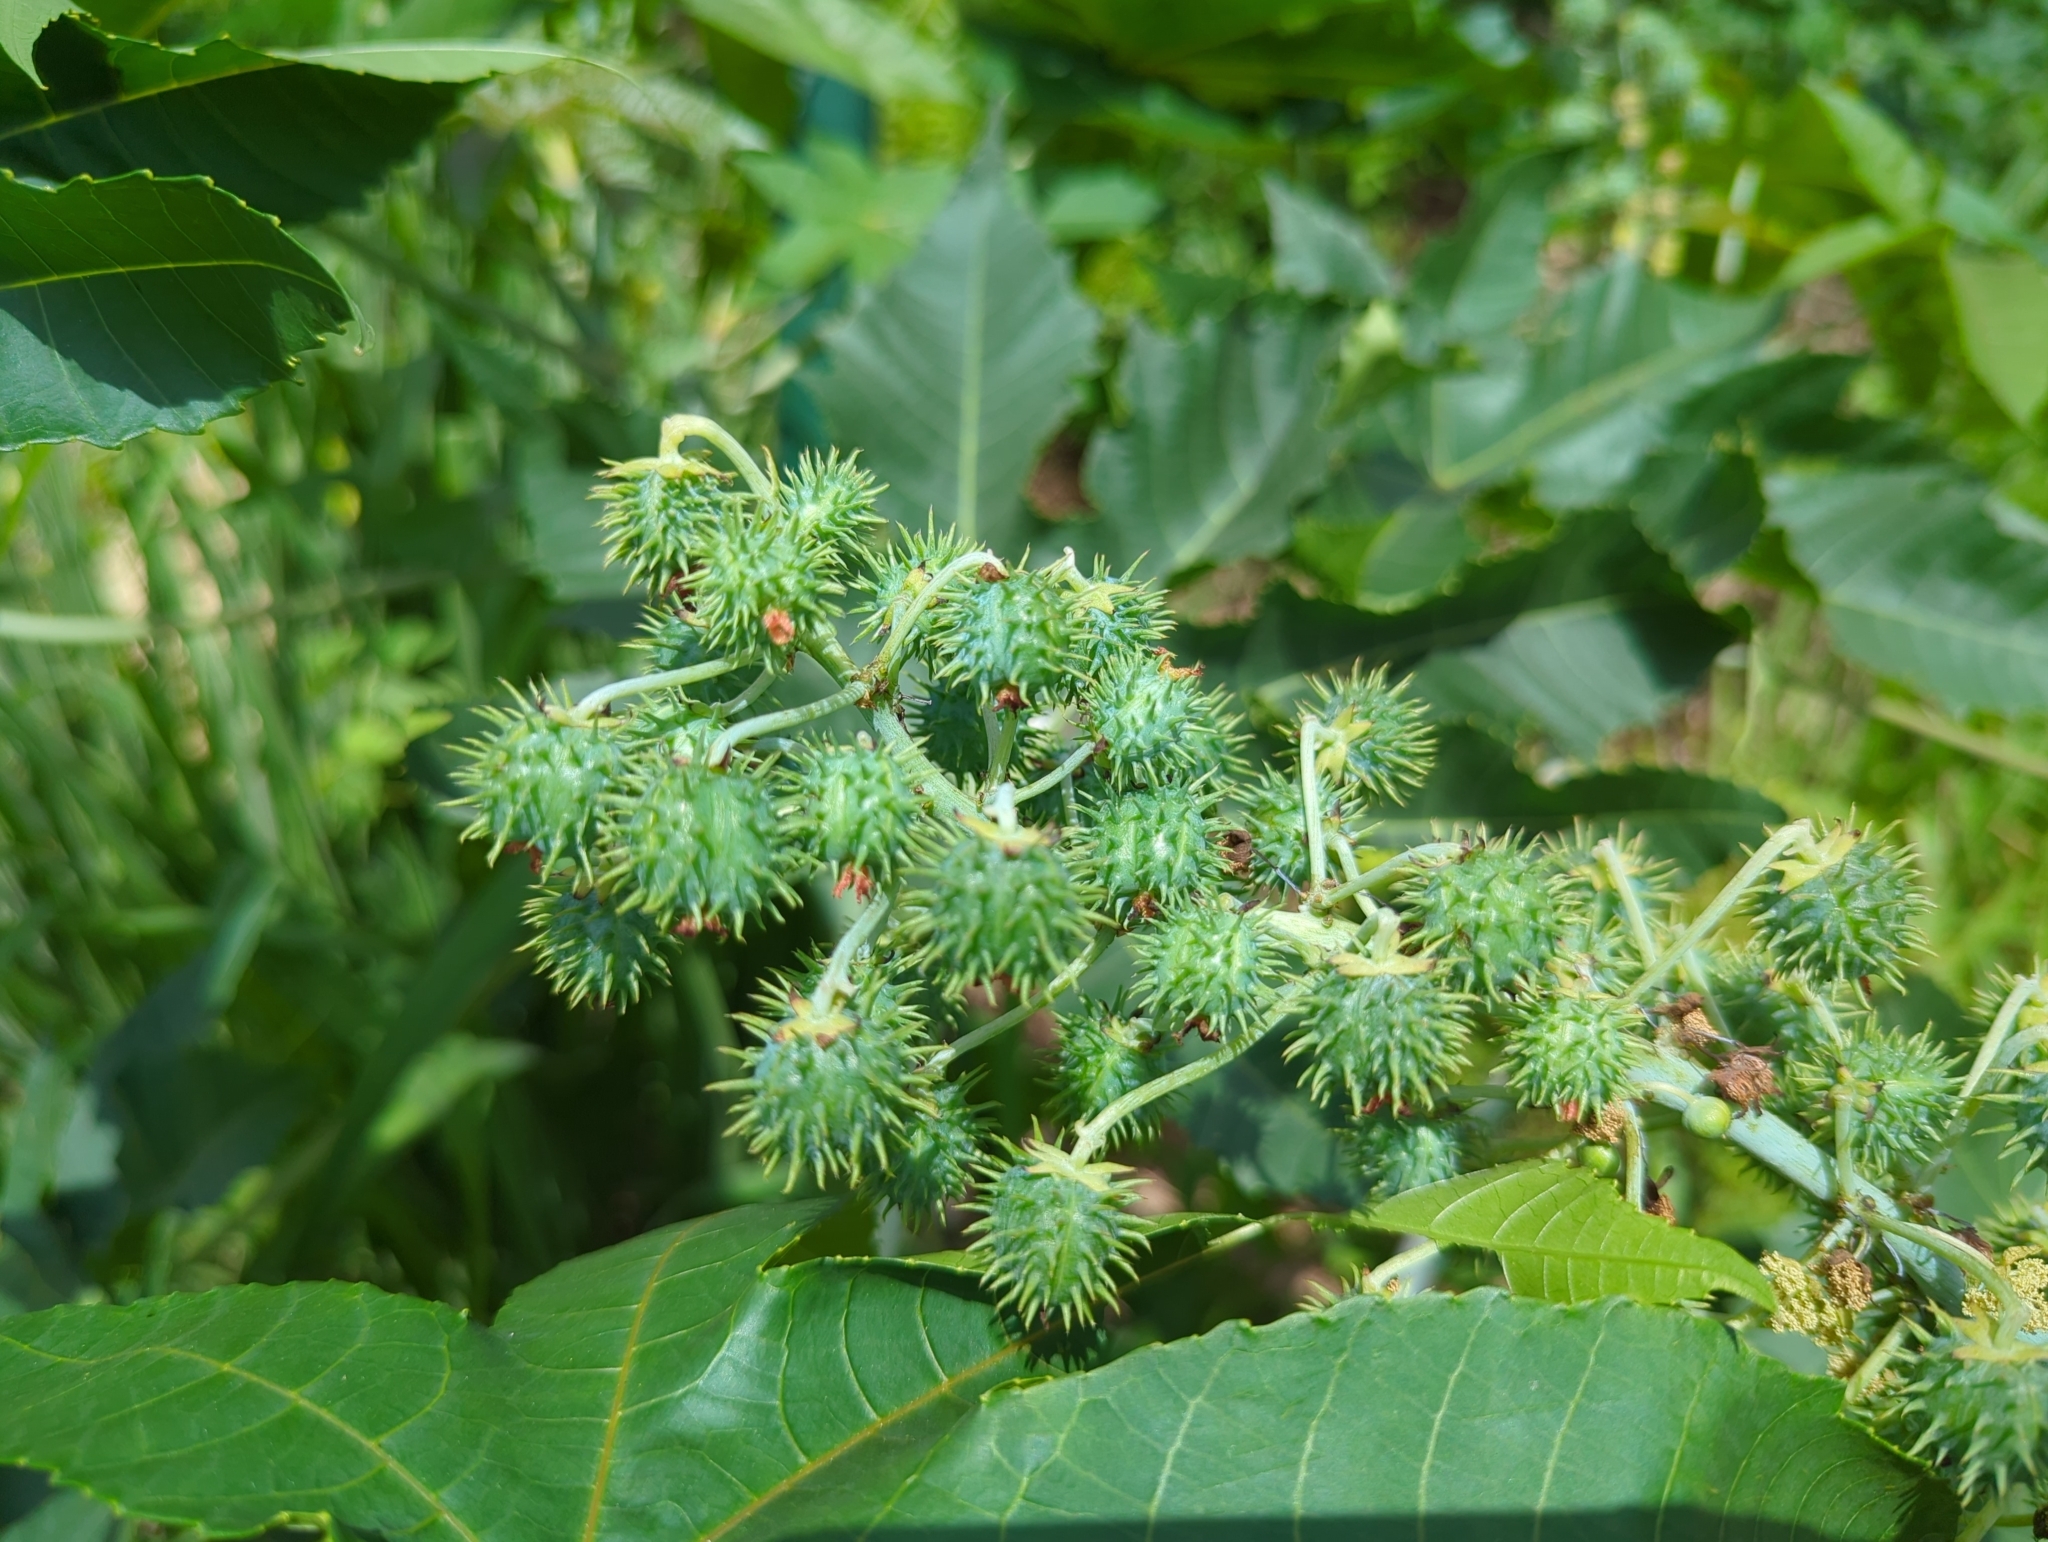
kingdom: Plantae
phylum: Tracheophyta
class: Magnoliopsida
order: Malpighiales
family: Euphorbiaceae
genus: Ricinus
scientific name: Ricinus communis
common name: Castor-oil-plant
